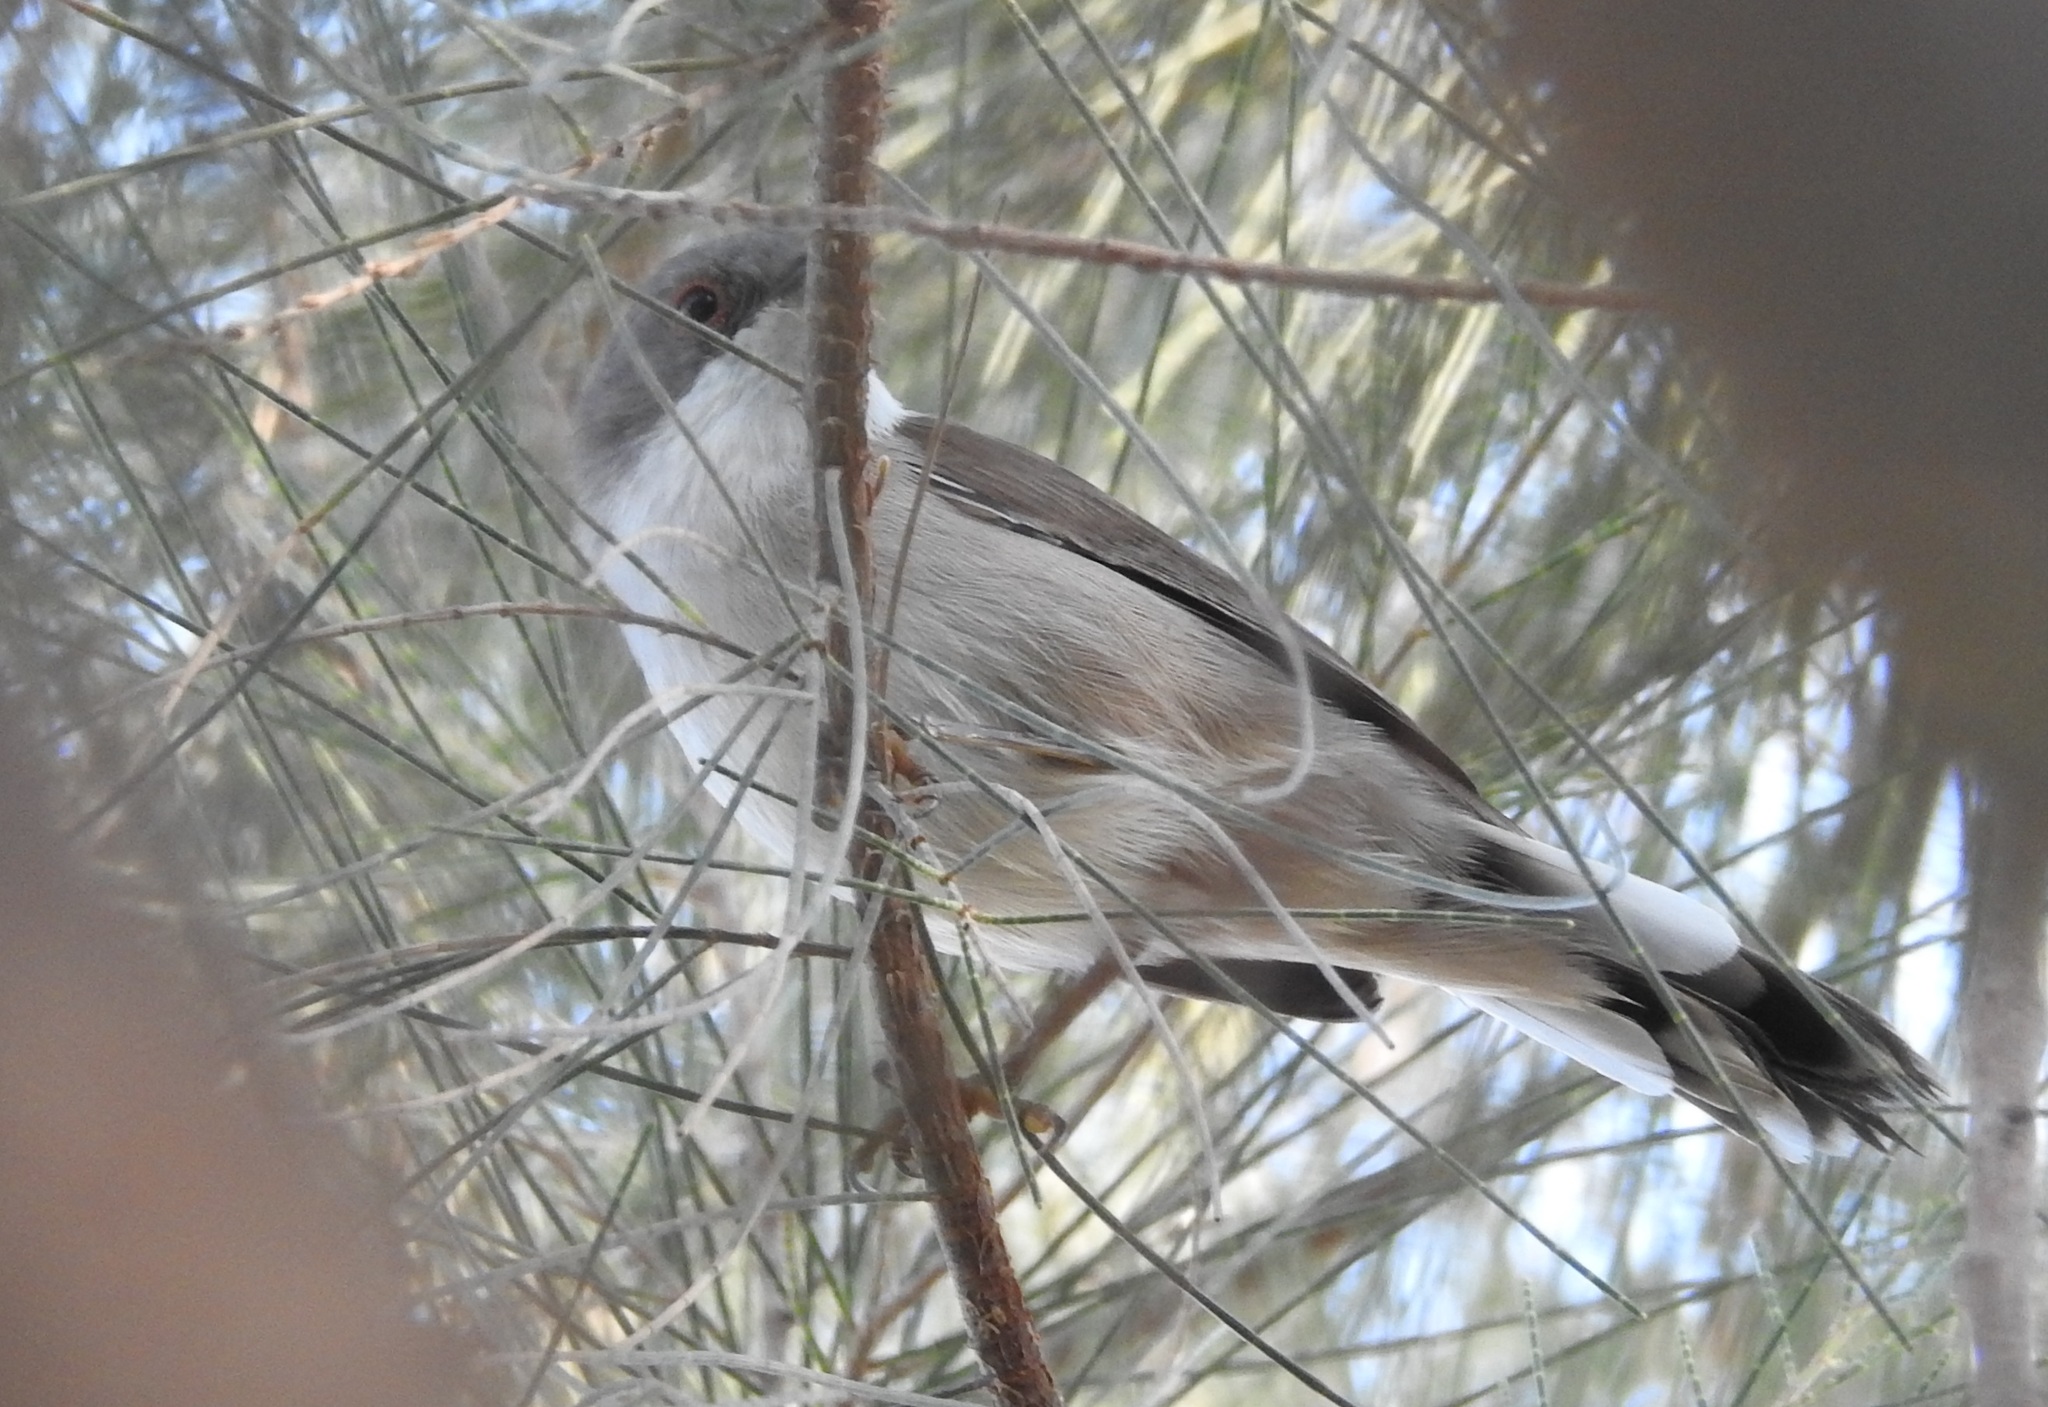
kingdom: Animalia
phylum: Chordata
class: Aves
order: Passeriformes
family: Sylviidae
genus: Curruca
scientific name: Curruca melanocephala
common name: Sardinian warbler
